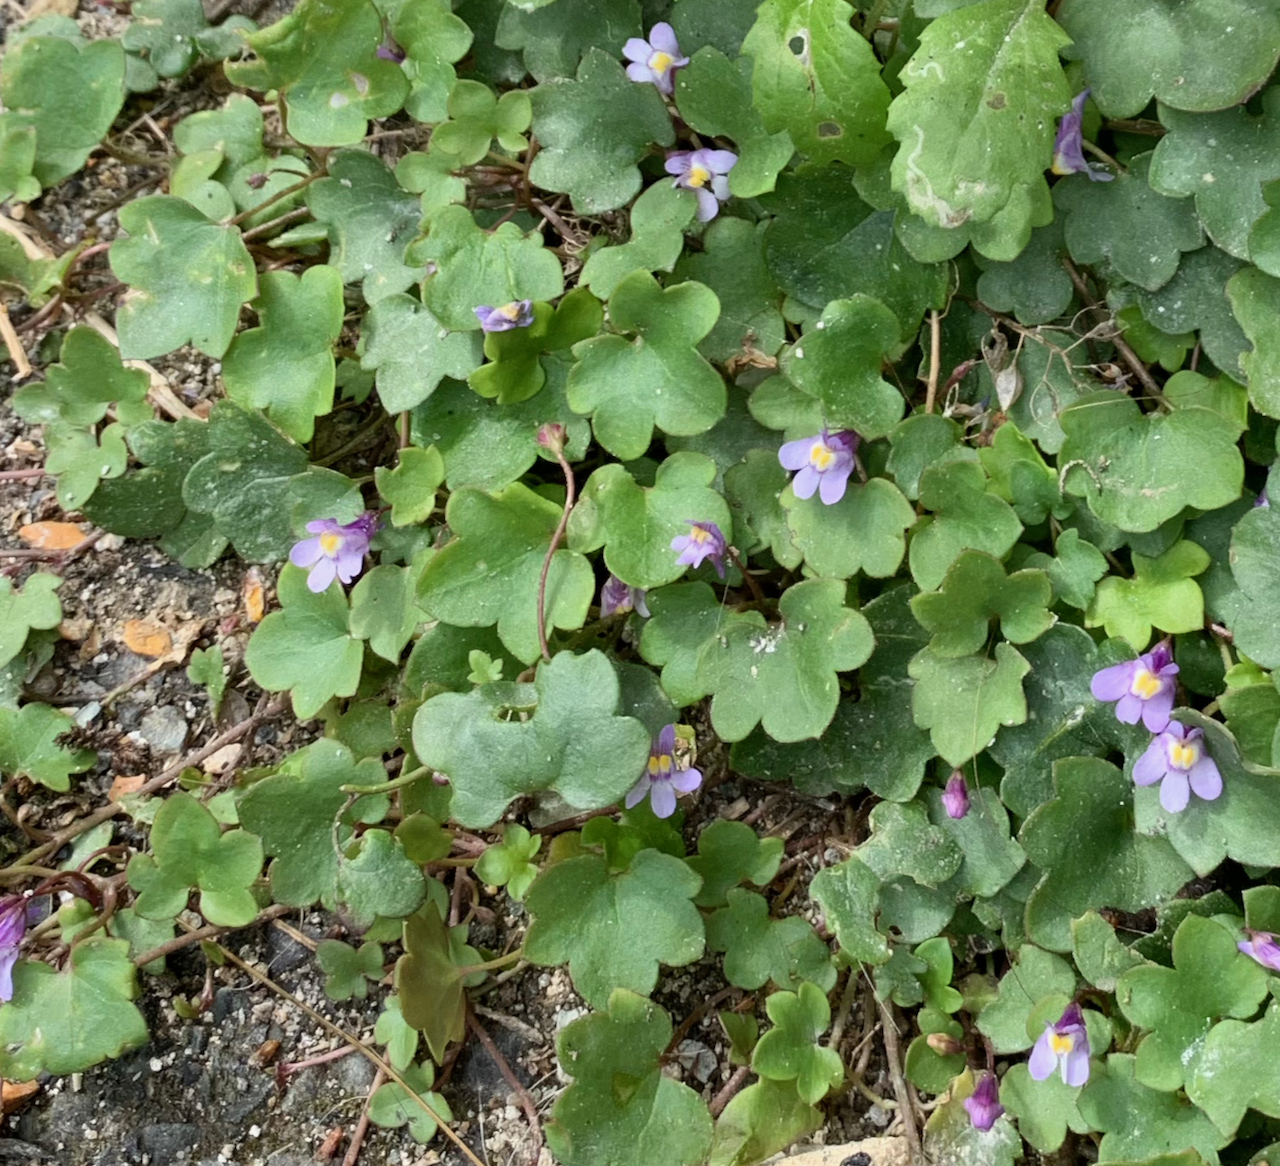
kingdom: Plantae
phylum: Tracheophyta
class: Magnoliopsida
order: Lamiales
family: Plantaginaceae
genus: Cymbalaria
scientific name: Cymbalaria muralis
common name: Ivy-leaved toadflax
